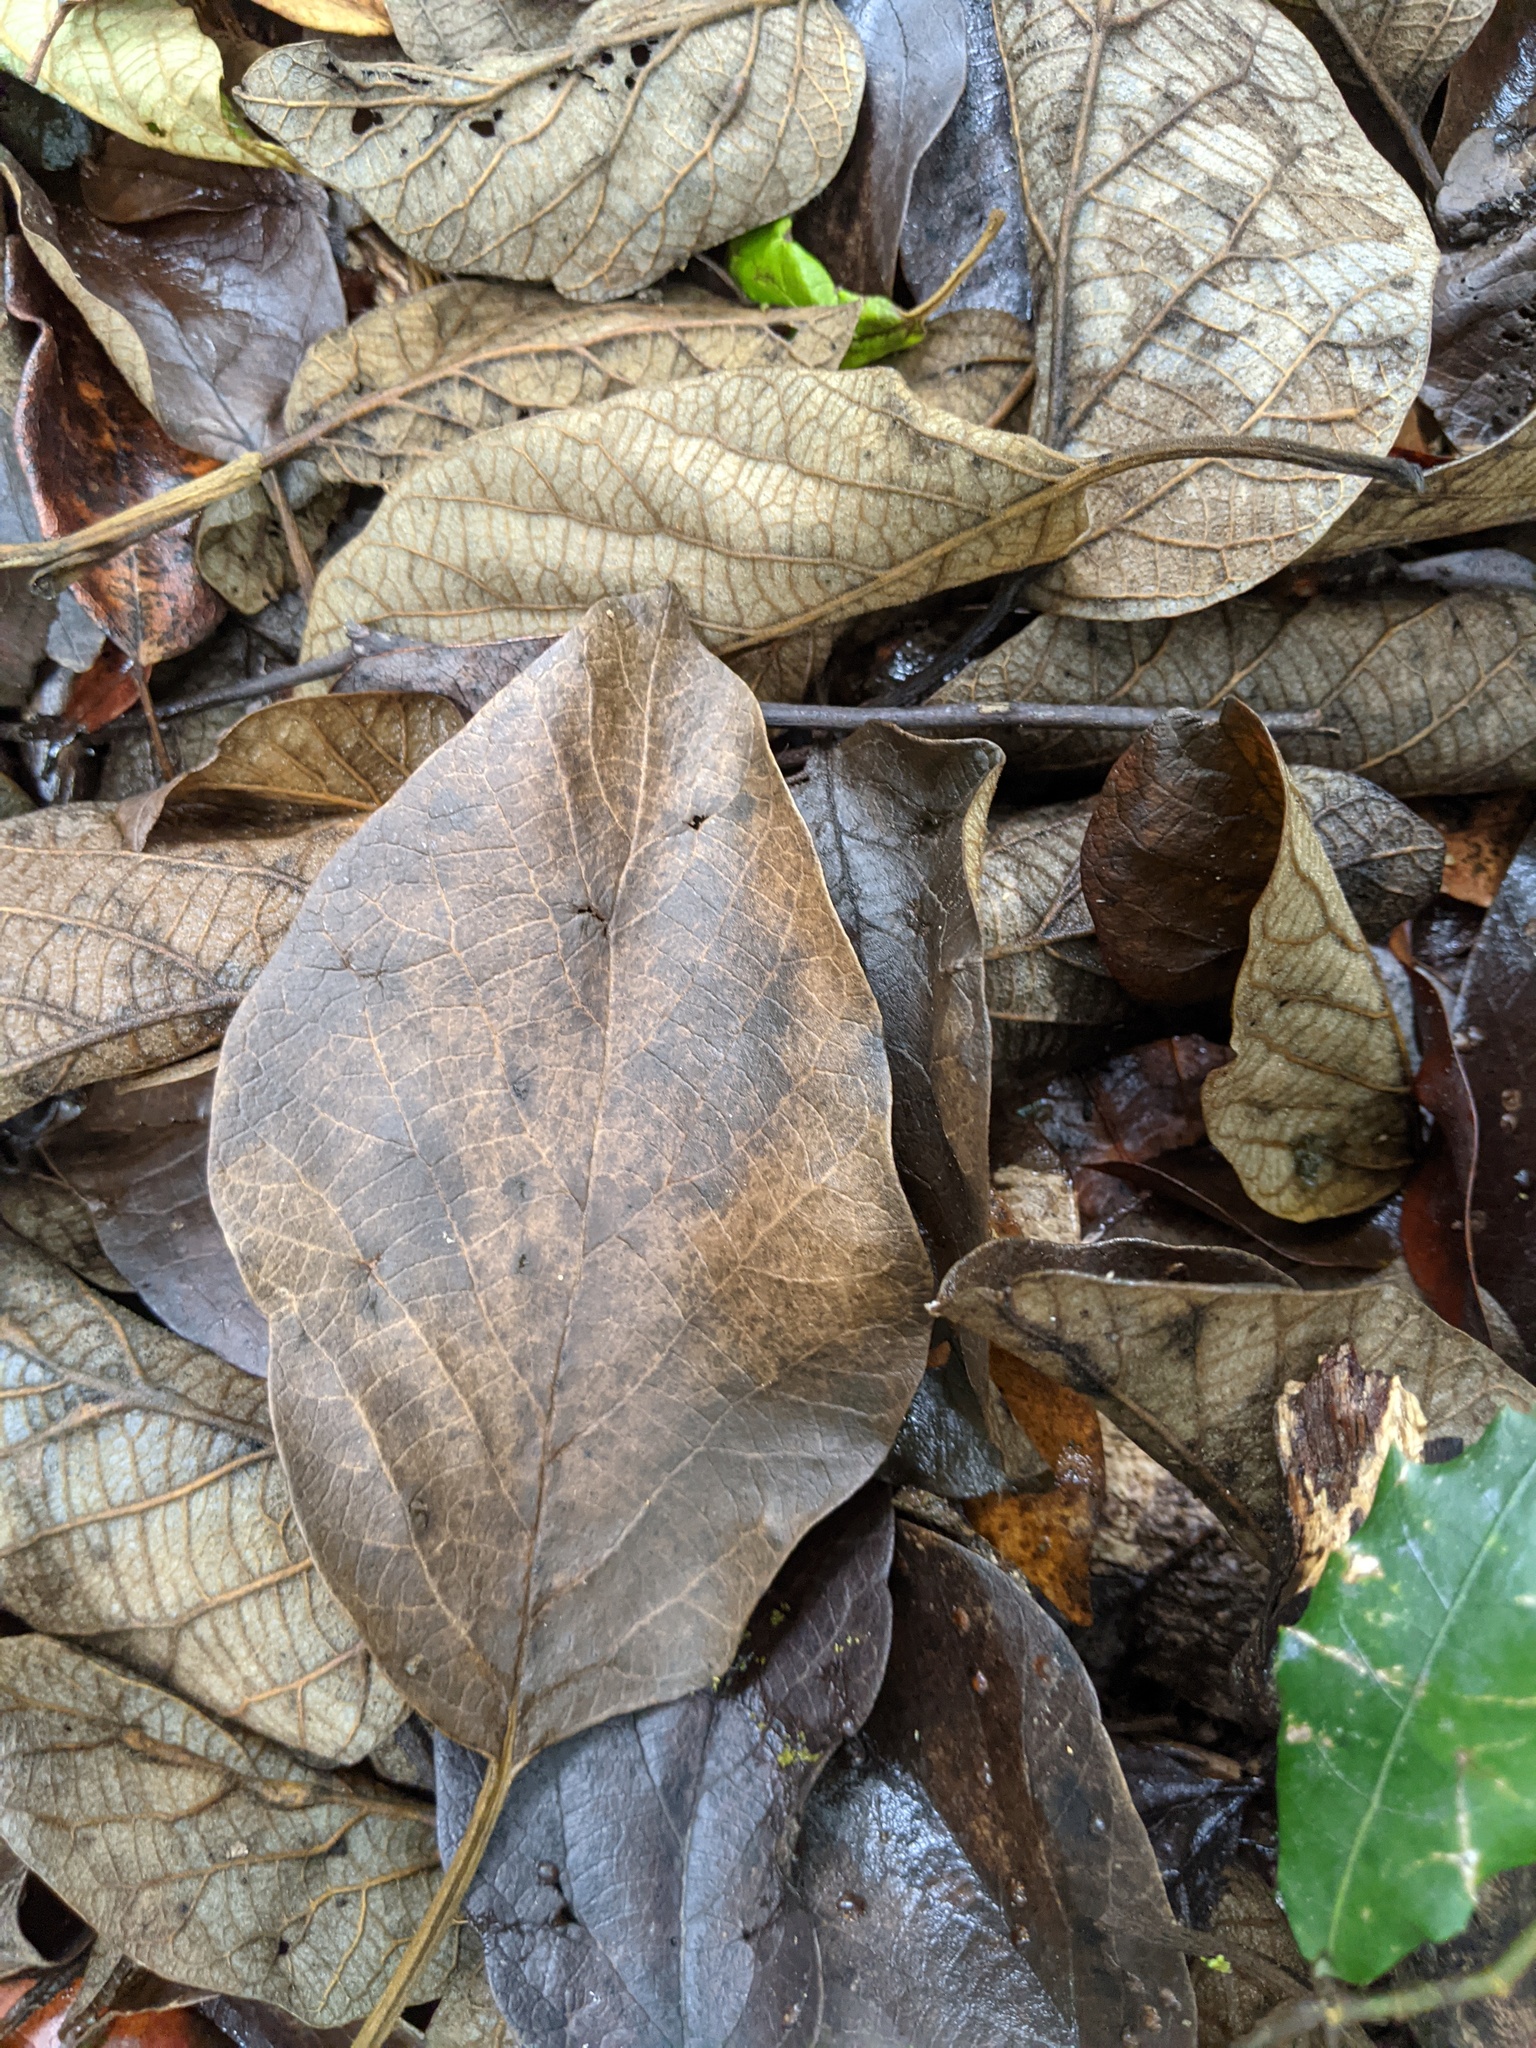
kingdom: Plantae
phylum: Tracheophyta
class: Magnoliopsida
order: Lamiales
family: Lamiaceae
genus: Gmelina
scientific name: Gmelina leichhardtii
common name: Queensland-beech
